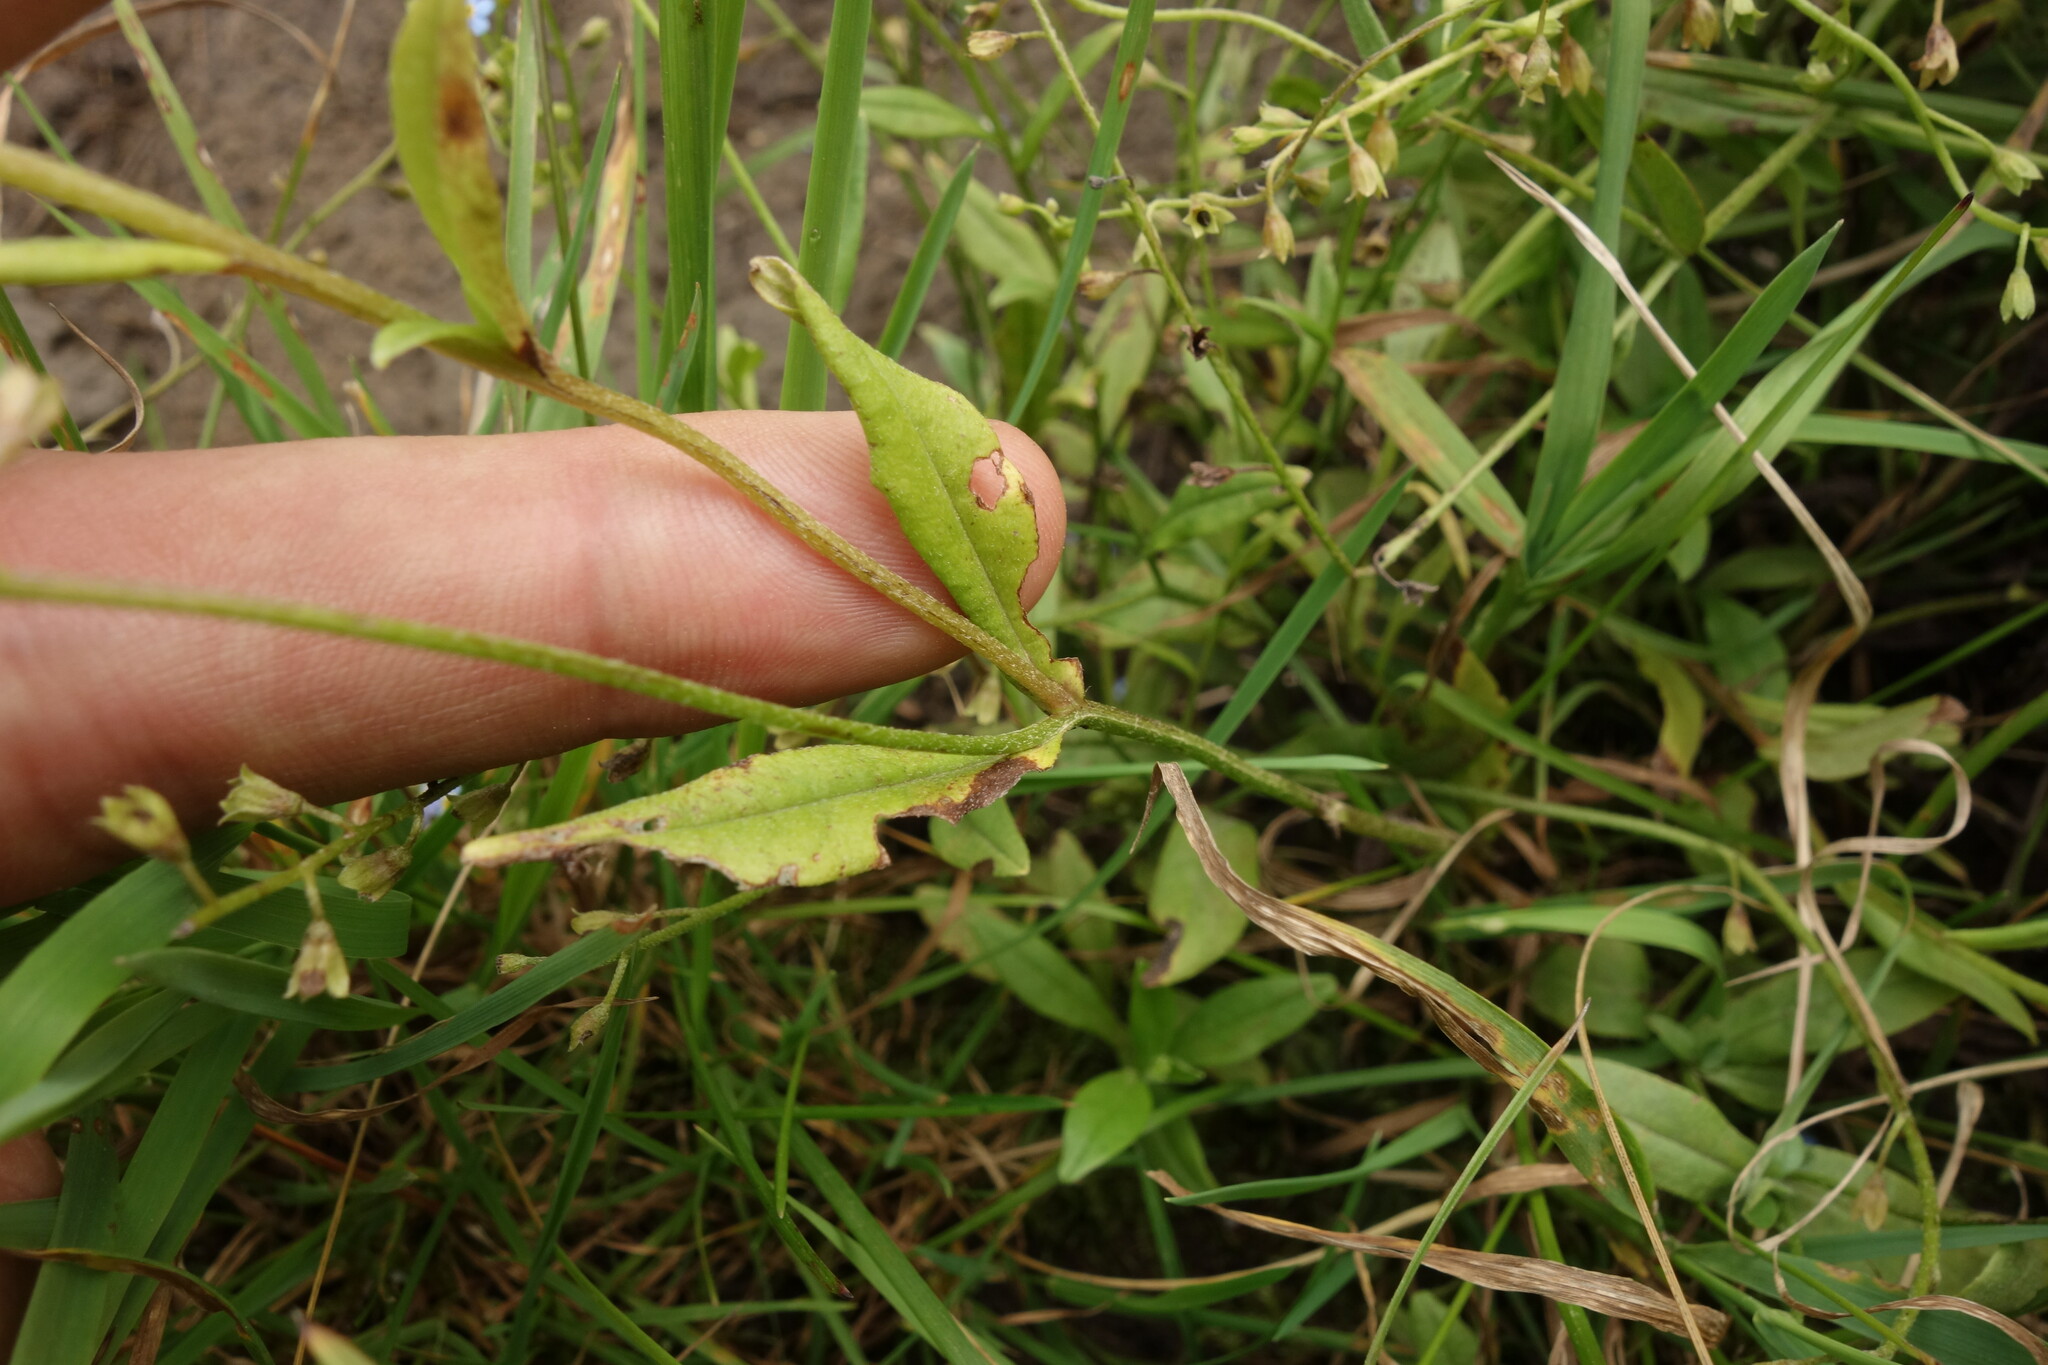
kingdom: Plantae
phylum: Tracheophyta
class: Magnoliopsida
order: Boraginales
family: Boraginaceae
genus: Myosotis
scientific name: Myosotis scorpioides
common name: Water forget-me-not
